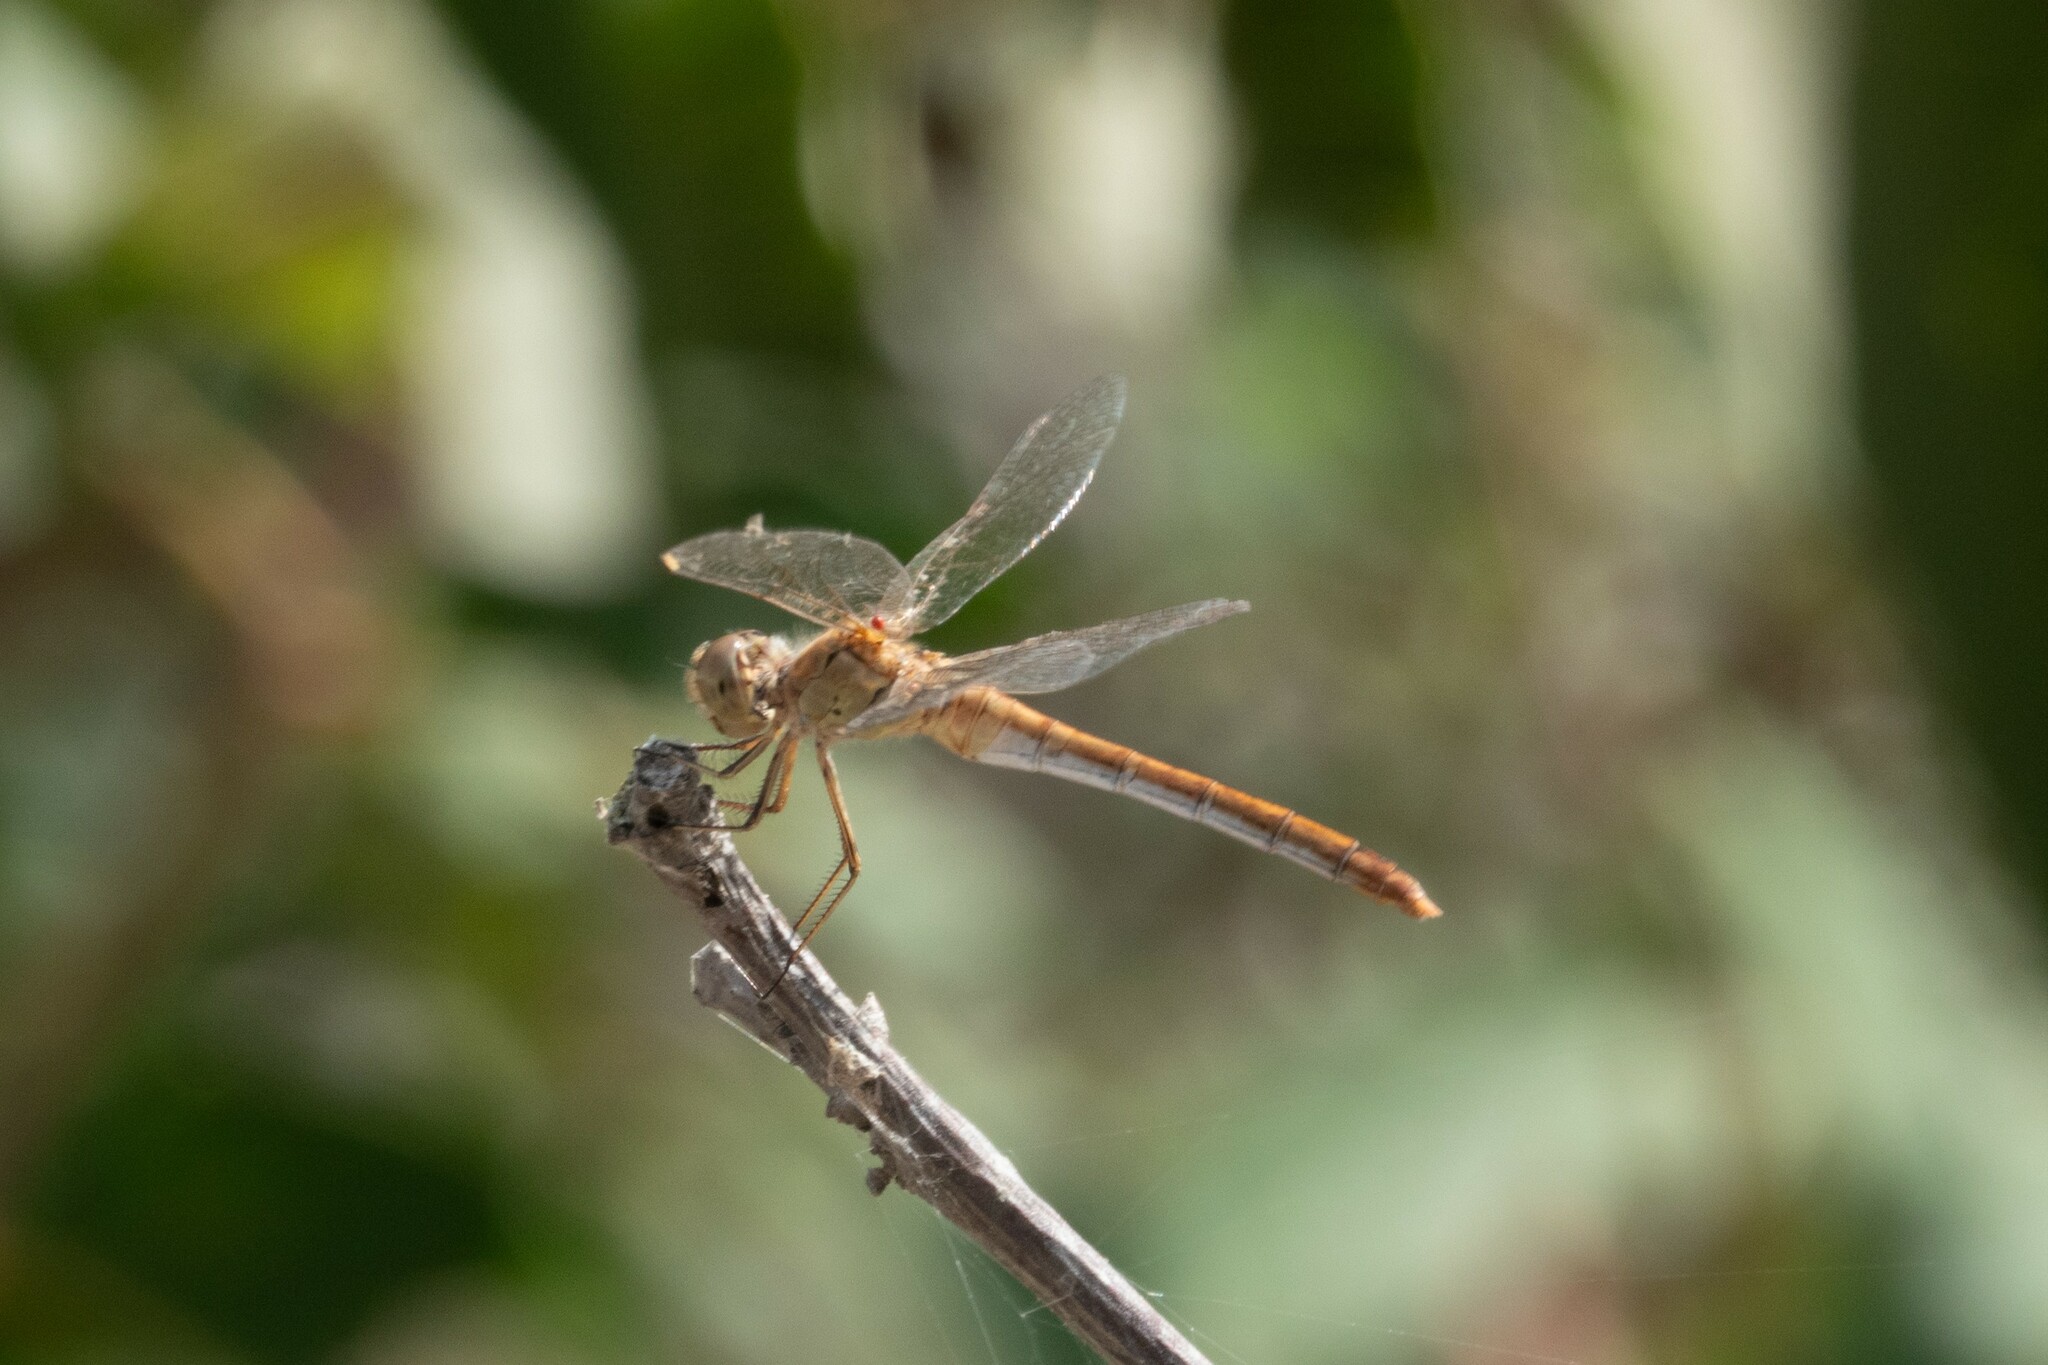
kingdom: Animalia
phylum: Arthropoda
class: Insecta
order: Odonata
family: Libellulidae
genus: Sympetrum
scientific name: Sympetrum meridionale
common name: Southern darter
